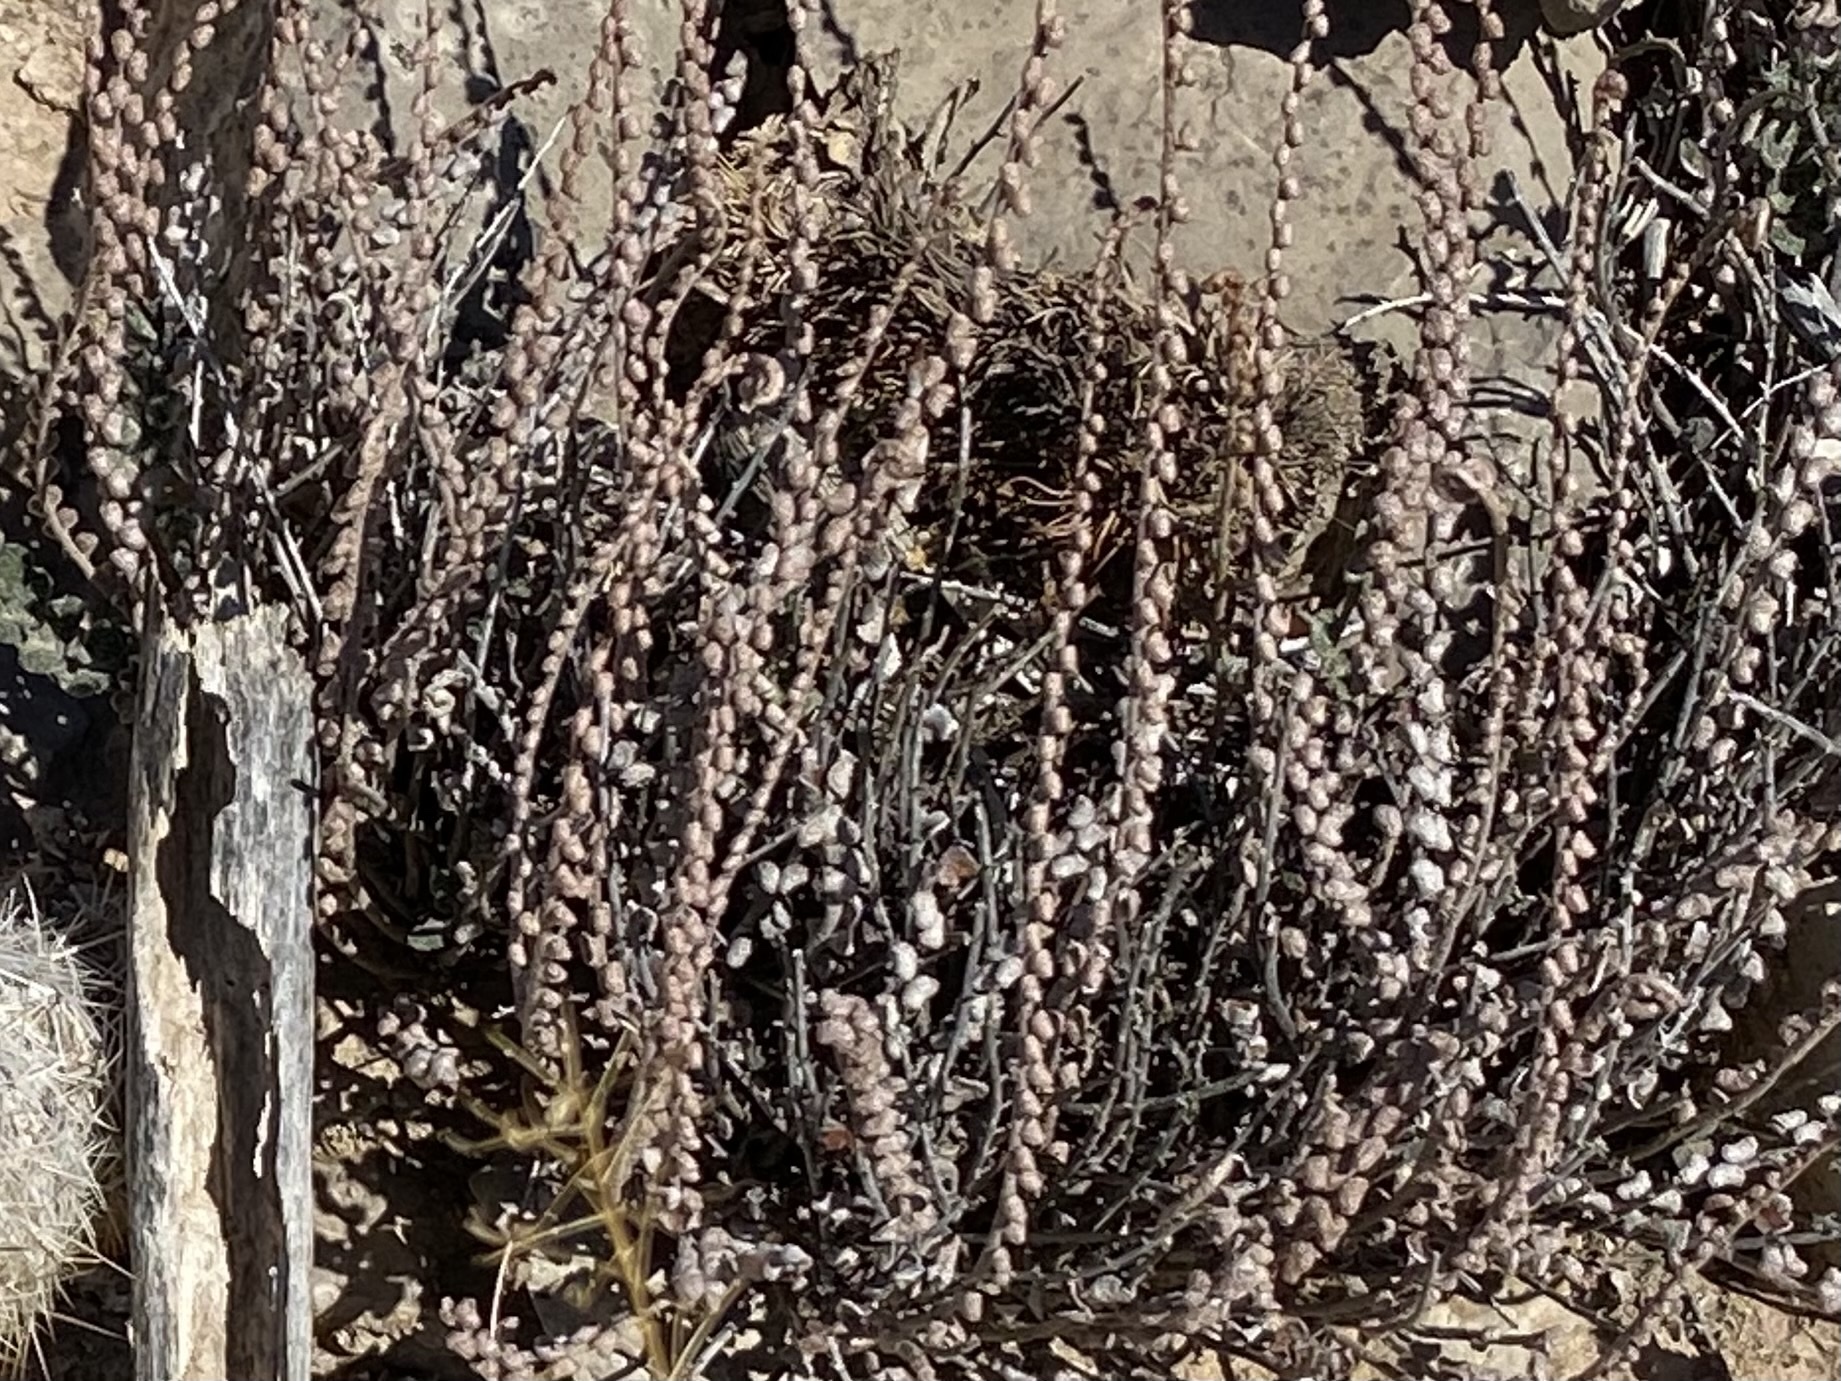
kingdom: Plantae
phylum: Tracheophyta
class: Polypodiopsida
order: Polypodiales
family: Pteridaceae
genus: Astrolepis
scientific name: Astrolepis cochisensis
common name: Scaly cloak fern
